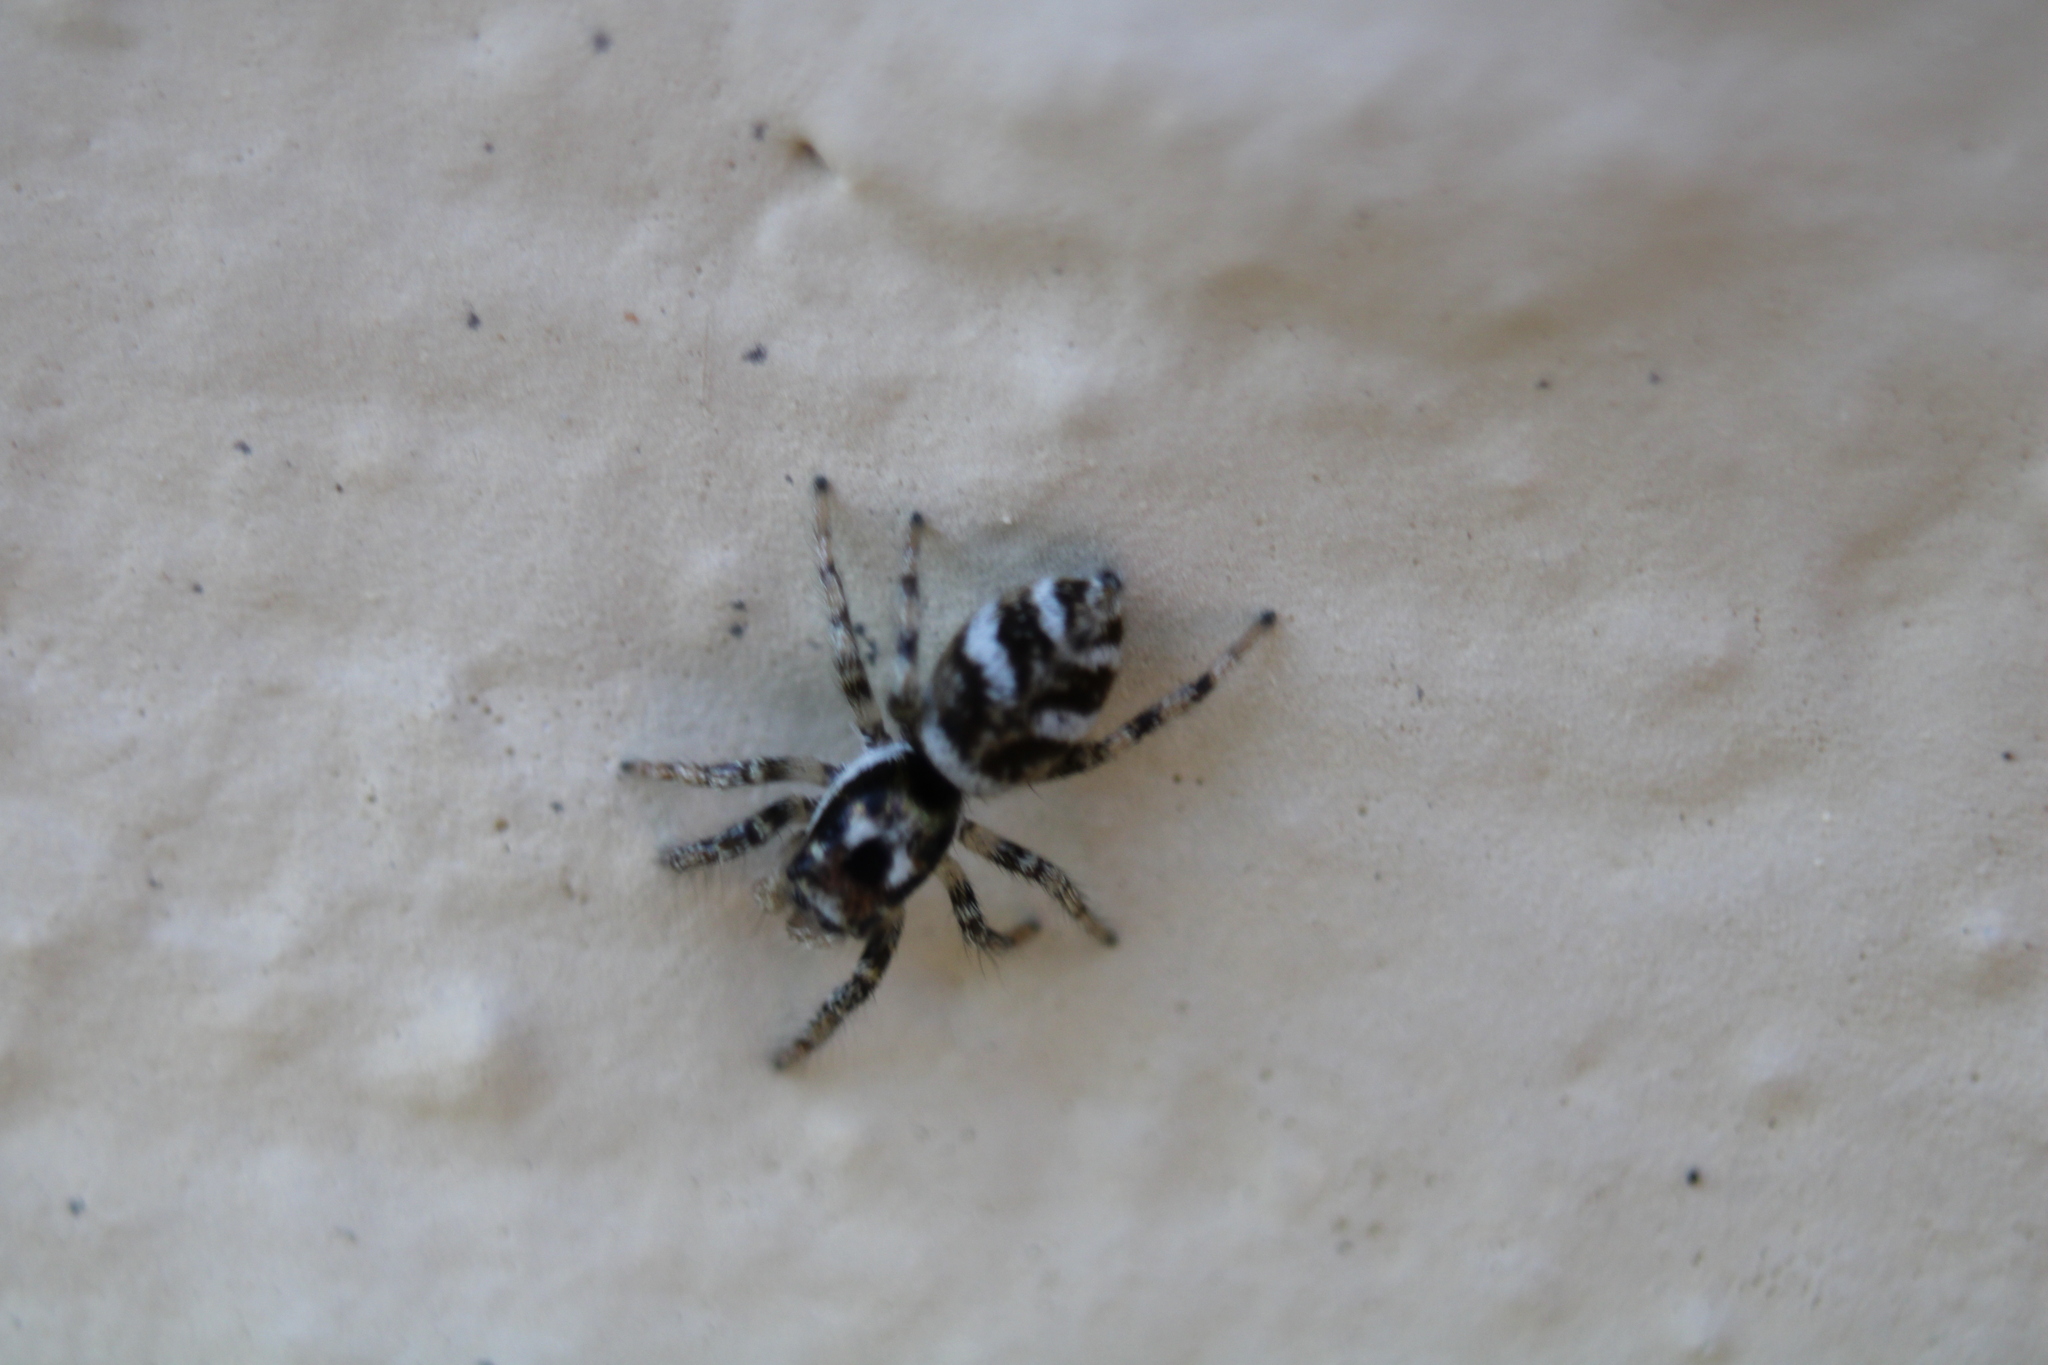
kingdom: Animalia
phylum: Arthropoda
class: Arachnida
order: Araneae
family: Salticidae
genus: Salticus
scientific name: Salticus scenicus
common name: Zebra jumper
